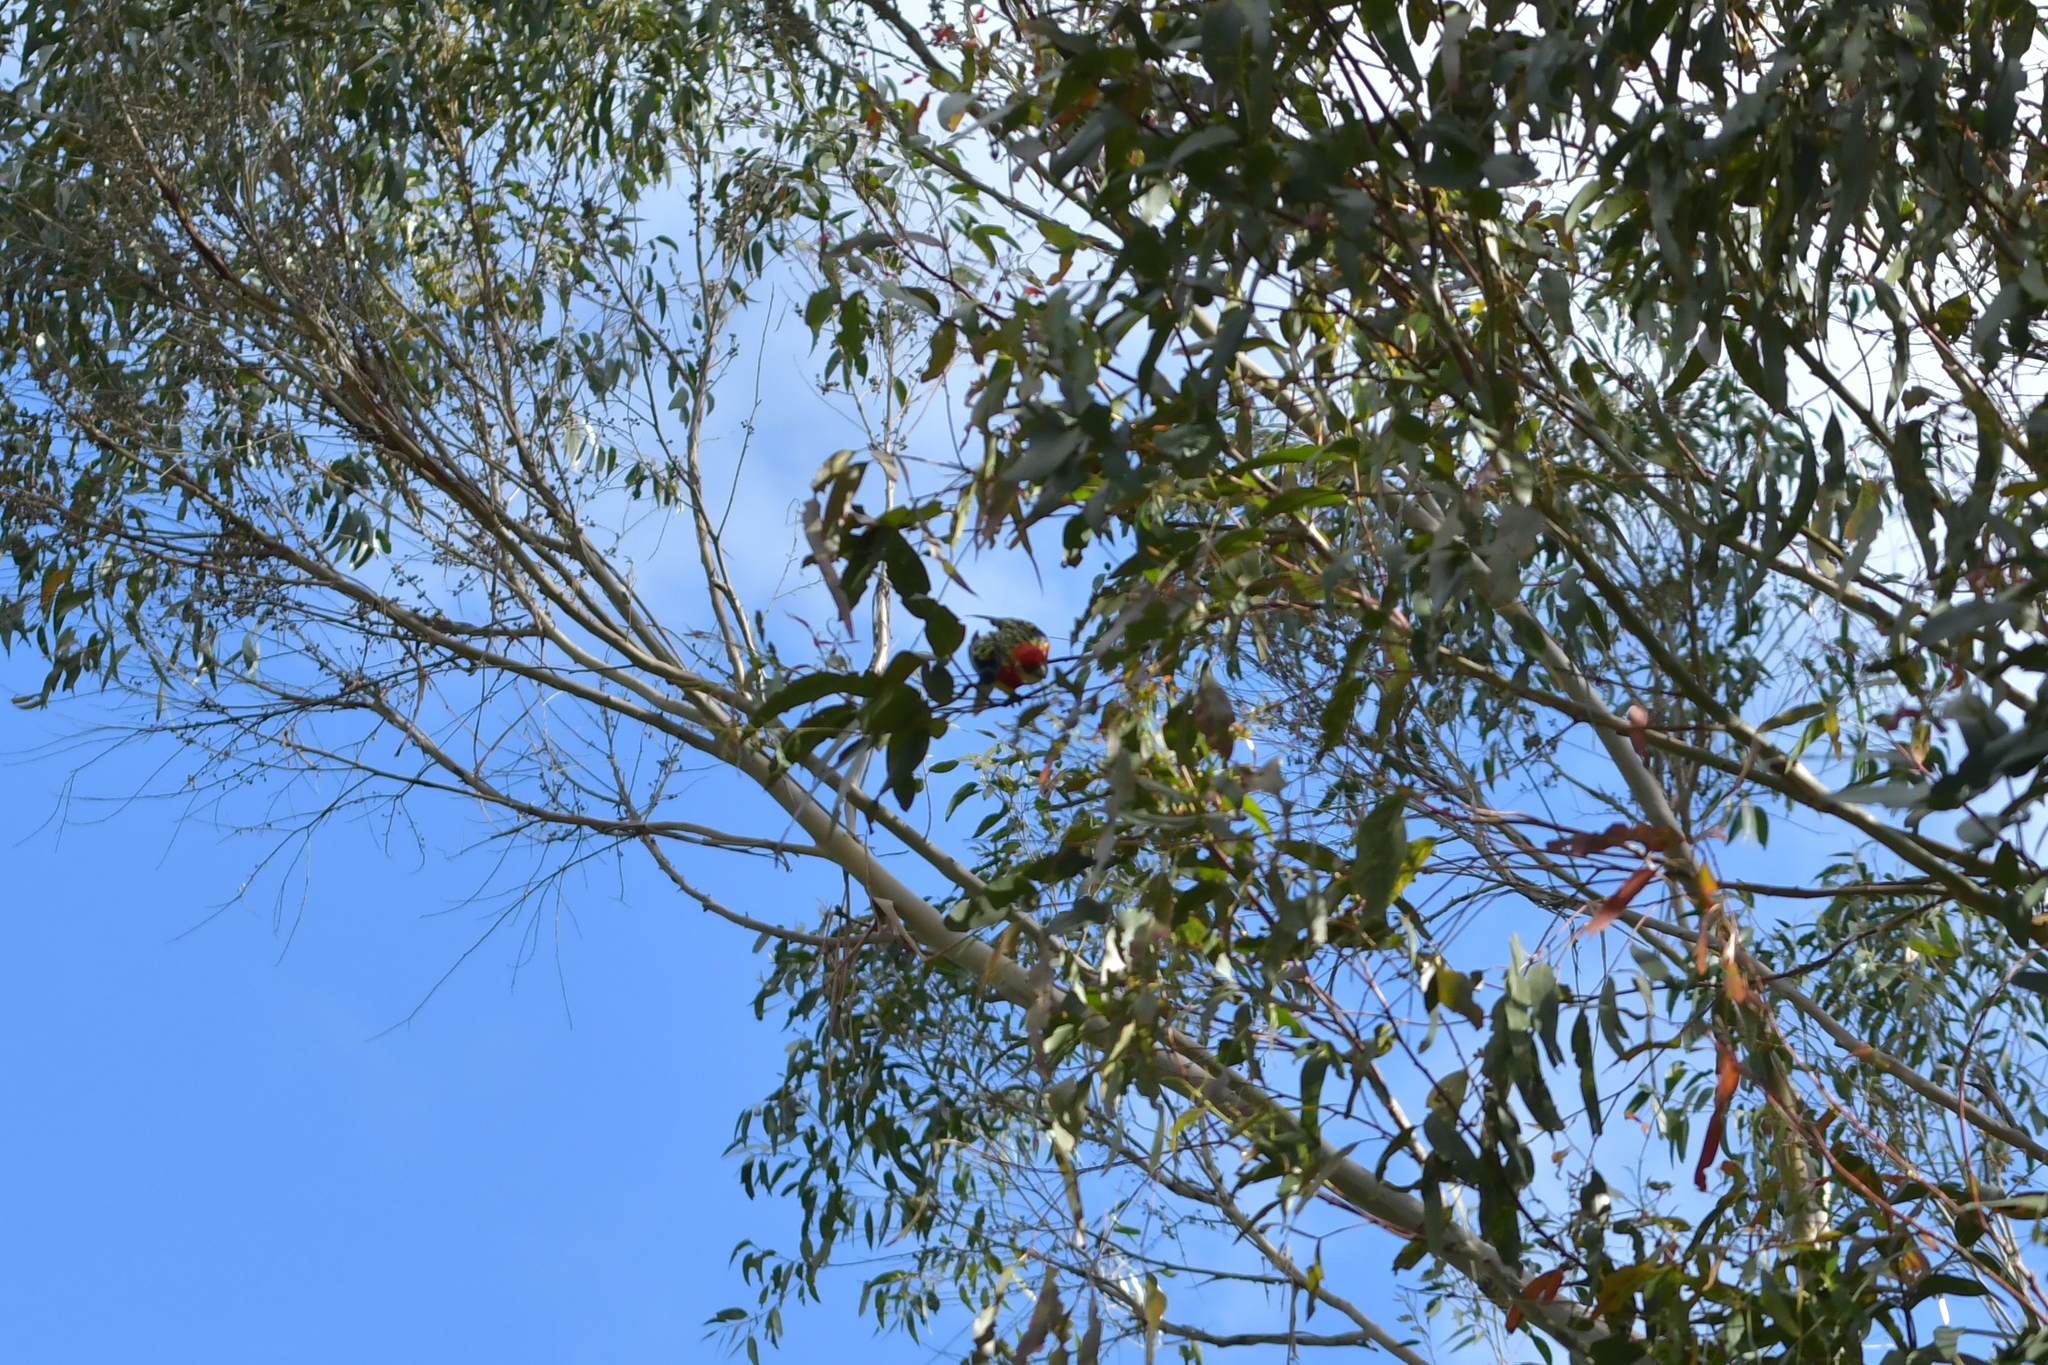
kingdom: Animalia
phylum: Chordata
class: Aves
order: Psittaciformes
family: Psittacidae
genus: Platycercus
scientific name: Platycercus eximius
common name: Eastern rosella
